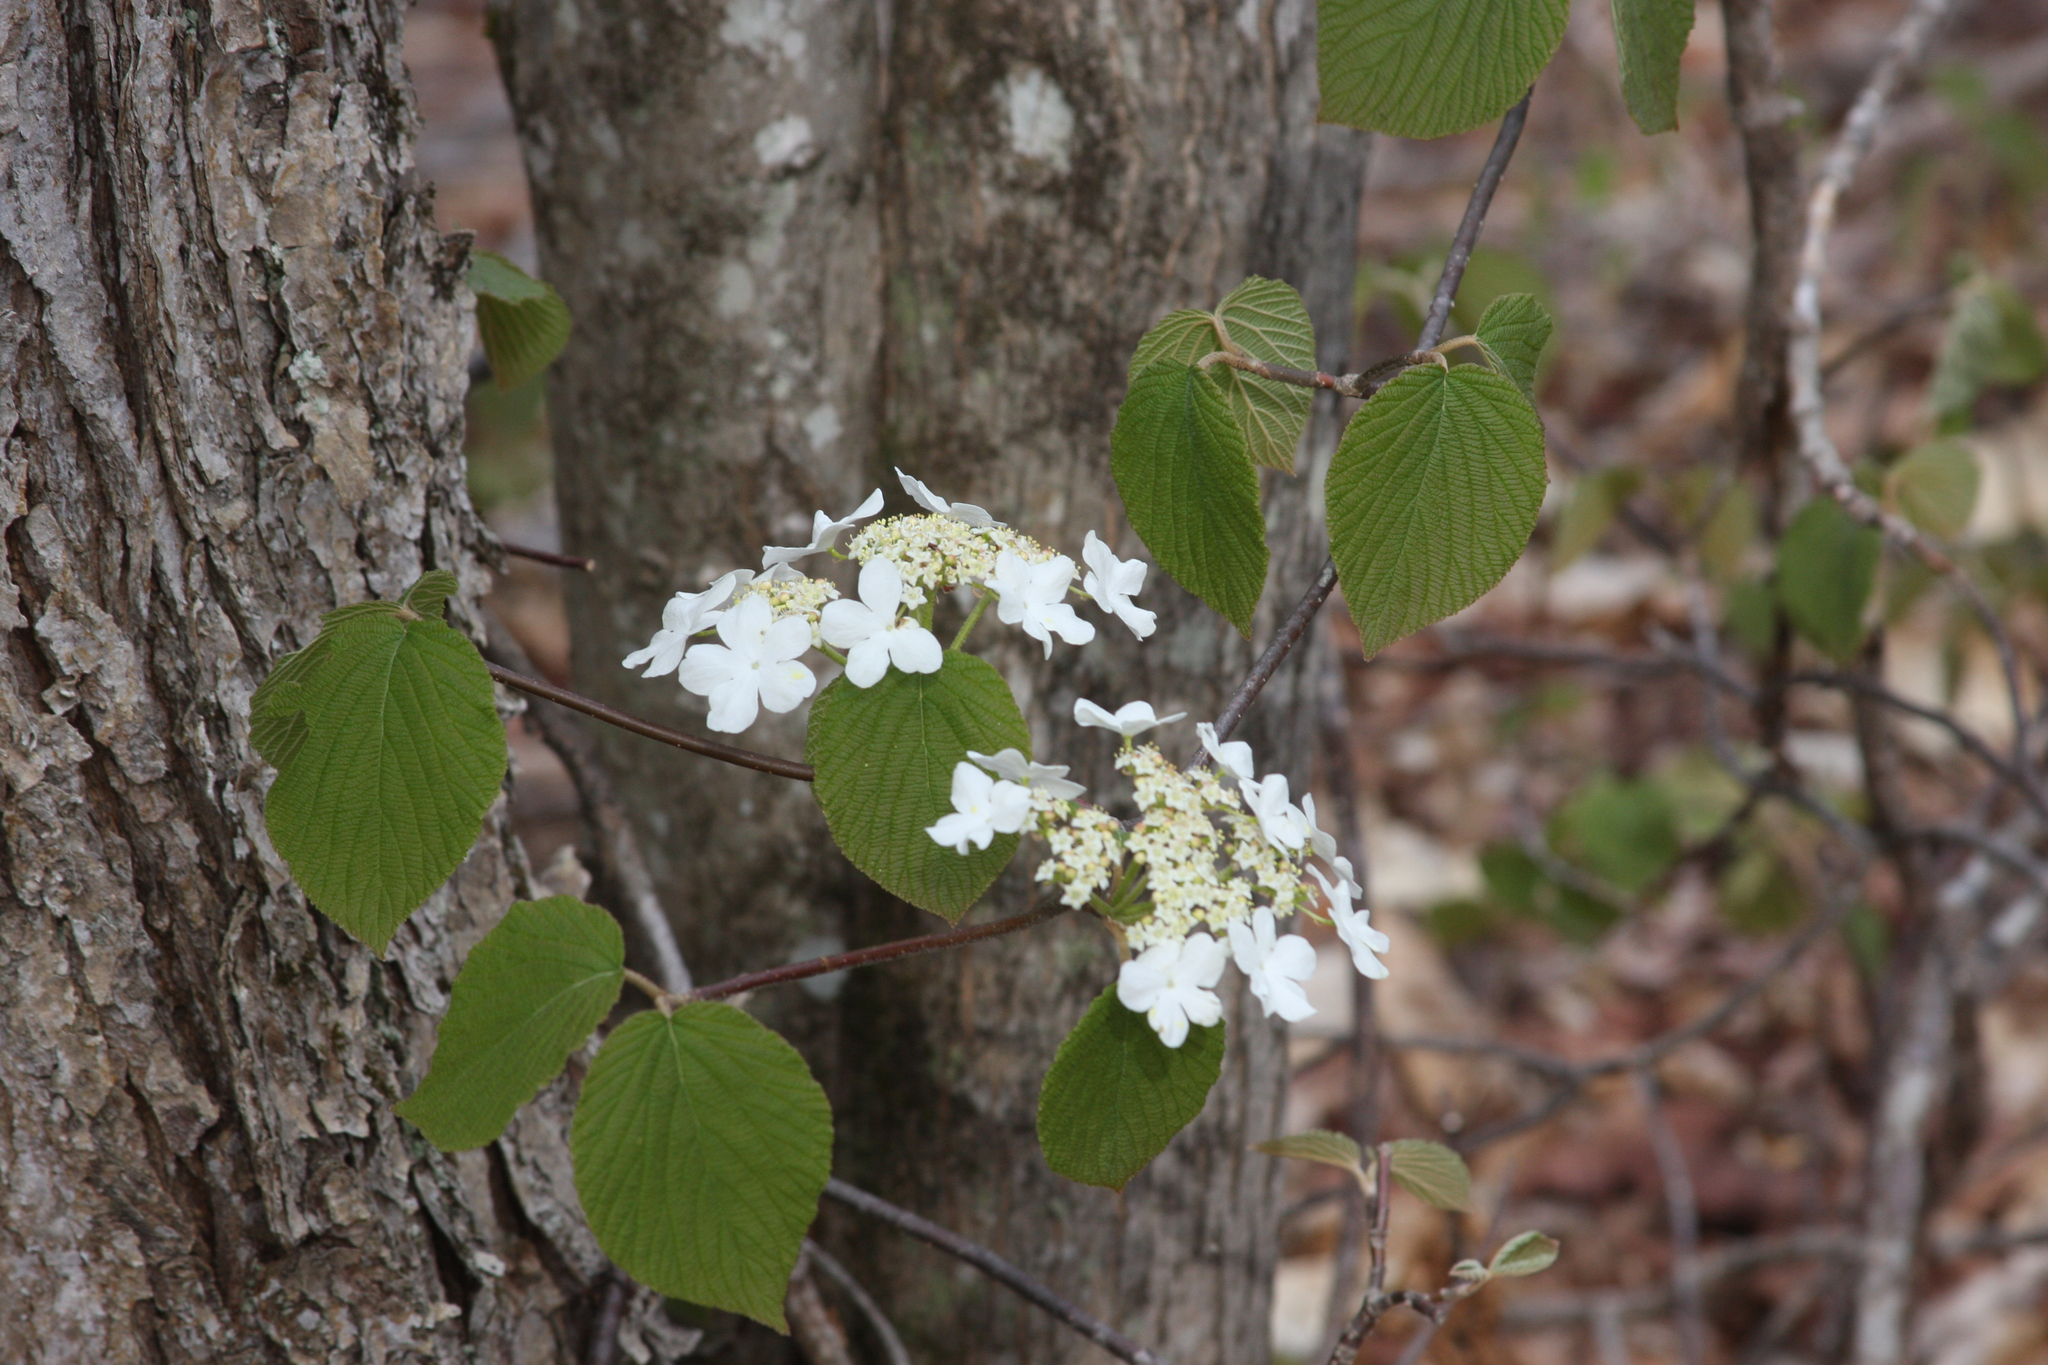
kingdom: Plantae
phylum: Tracheophyta
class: Magnoliopsida
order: Dipsacales
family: Viburnaceae
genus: Viburnum
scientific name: Viburnum lantanoides
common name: Hobblebush
